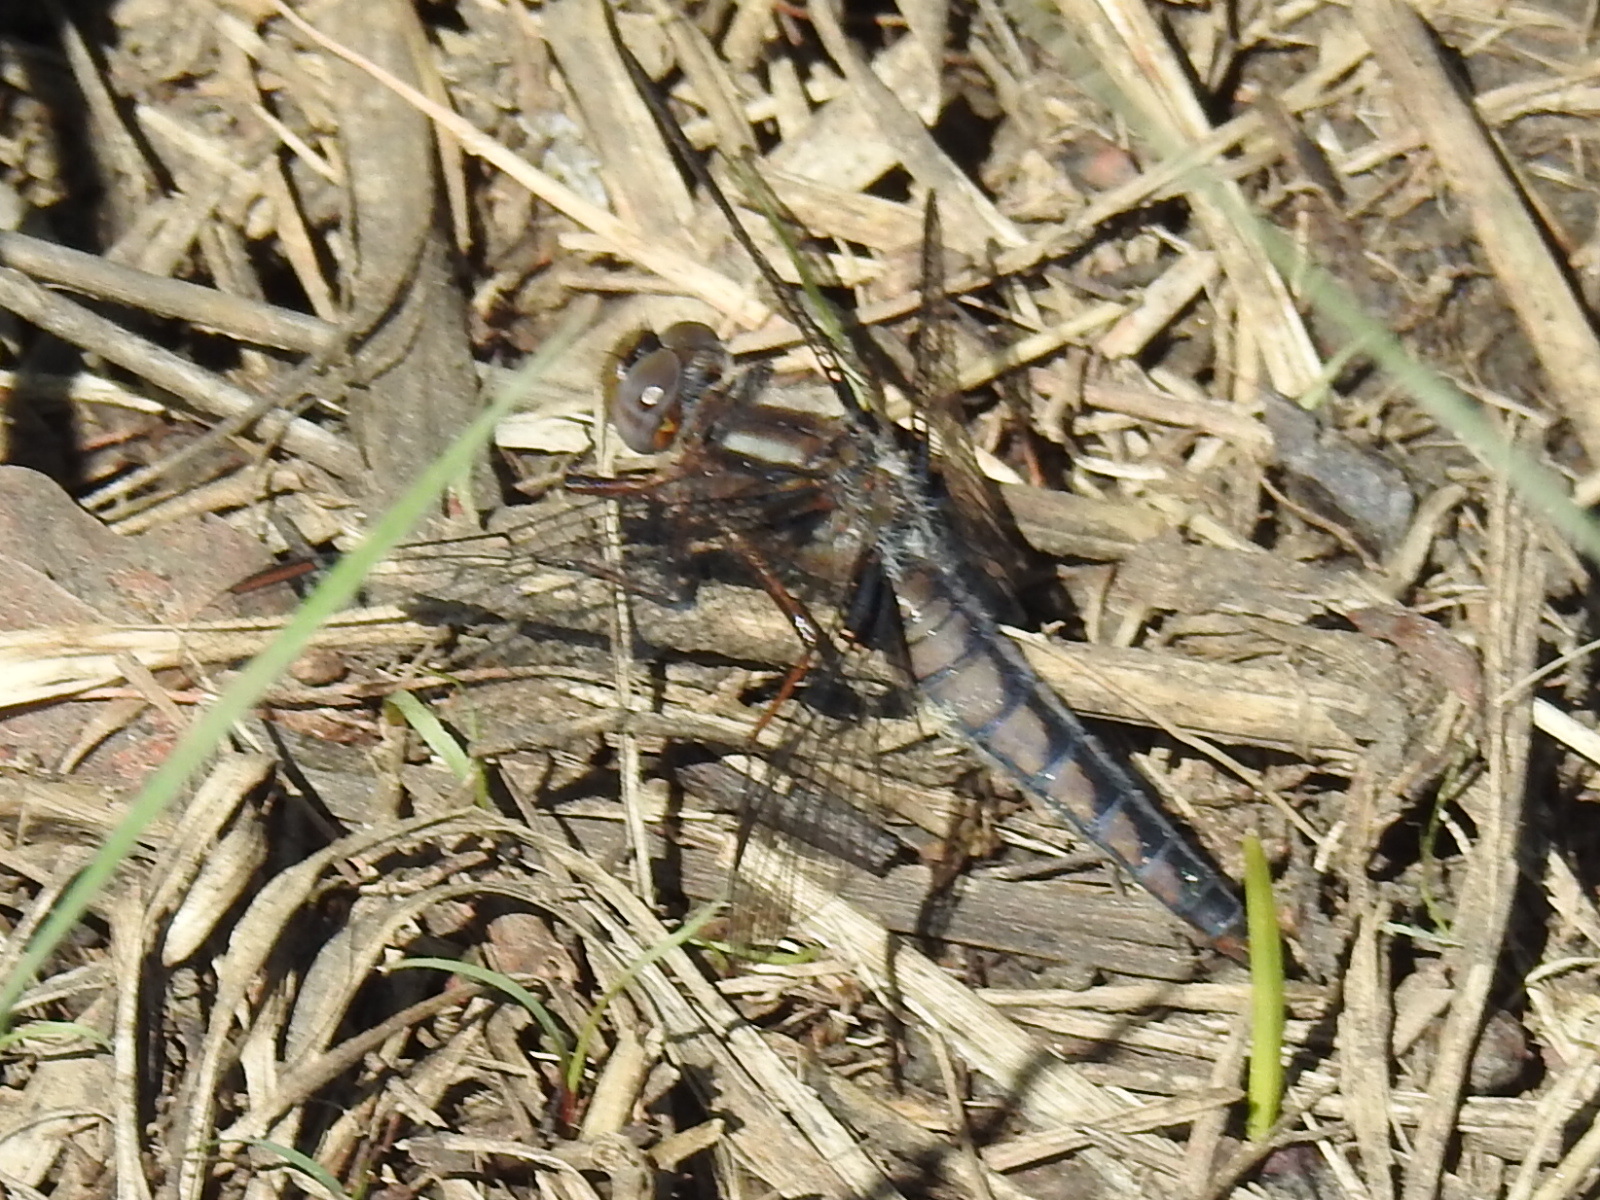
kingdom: Animalia
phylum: Arthropoda
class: Insecta
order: Odonata
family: Libellulidae
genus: Ladona
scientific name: Ladona deplanata
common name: Blue corporal
